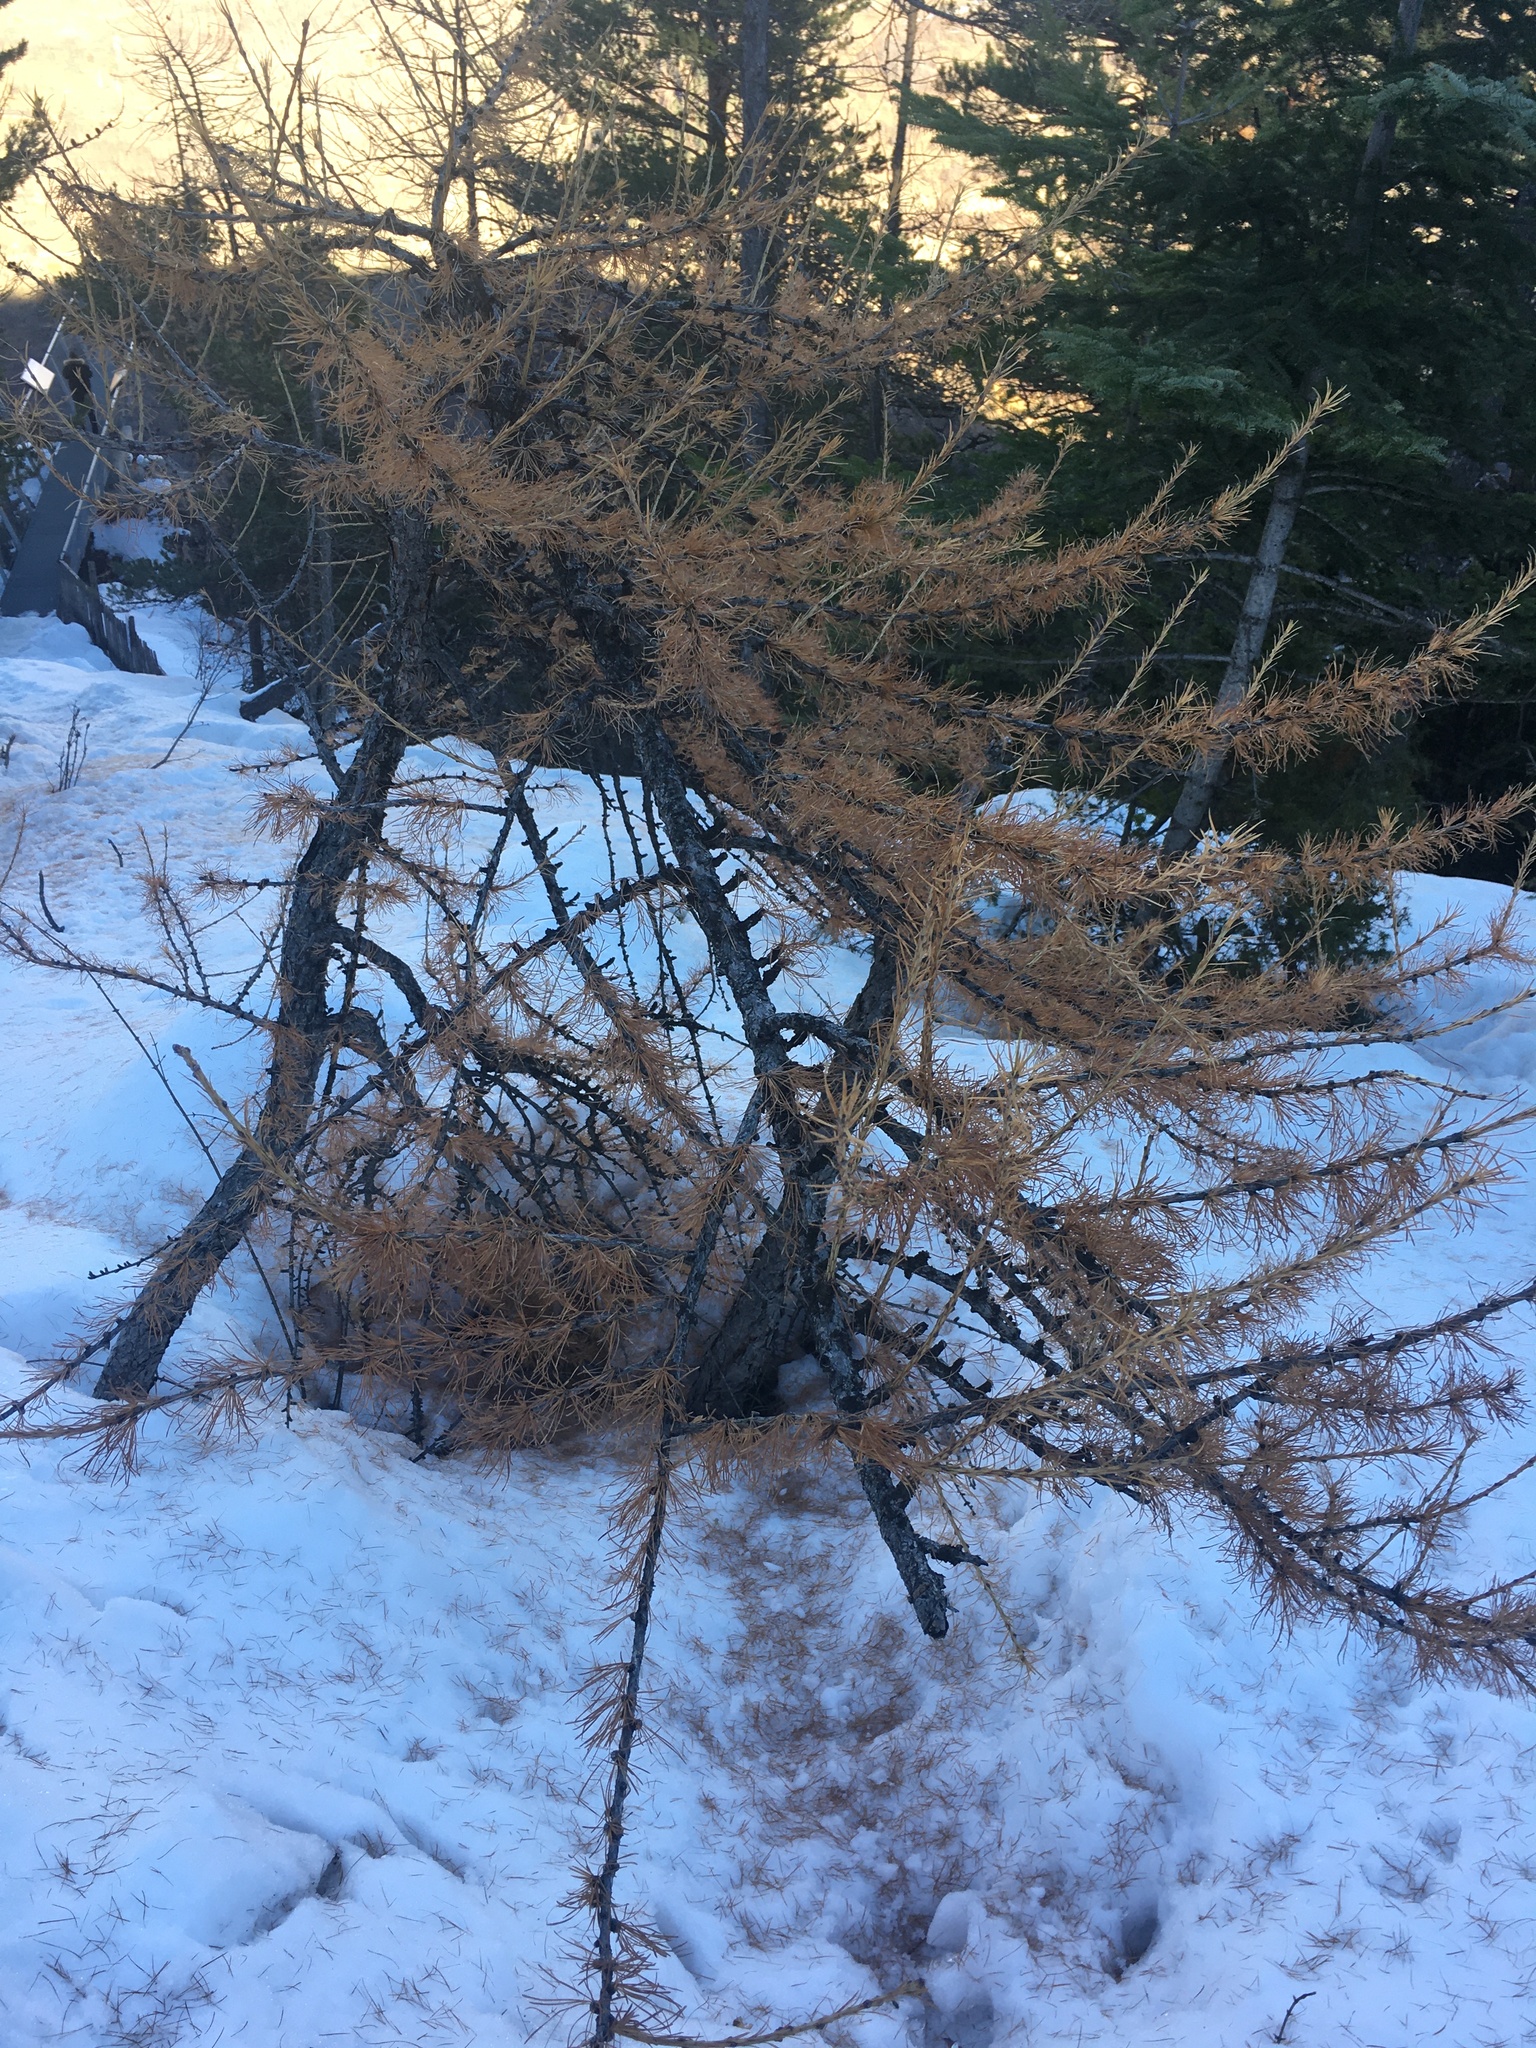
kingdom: Plantae
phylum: Tracheophyta
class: Pinopsida
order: Pinales
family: Pinaceae
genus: Larix
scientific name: Larix decidua
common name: European larch
